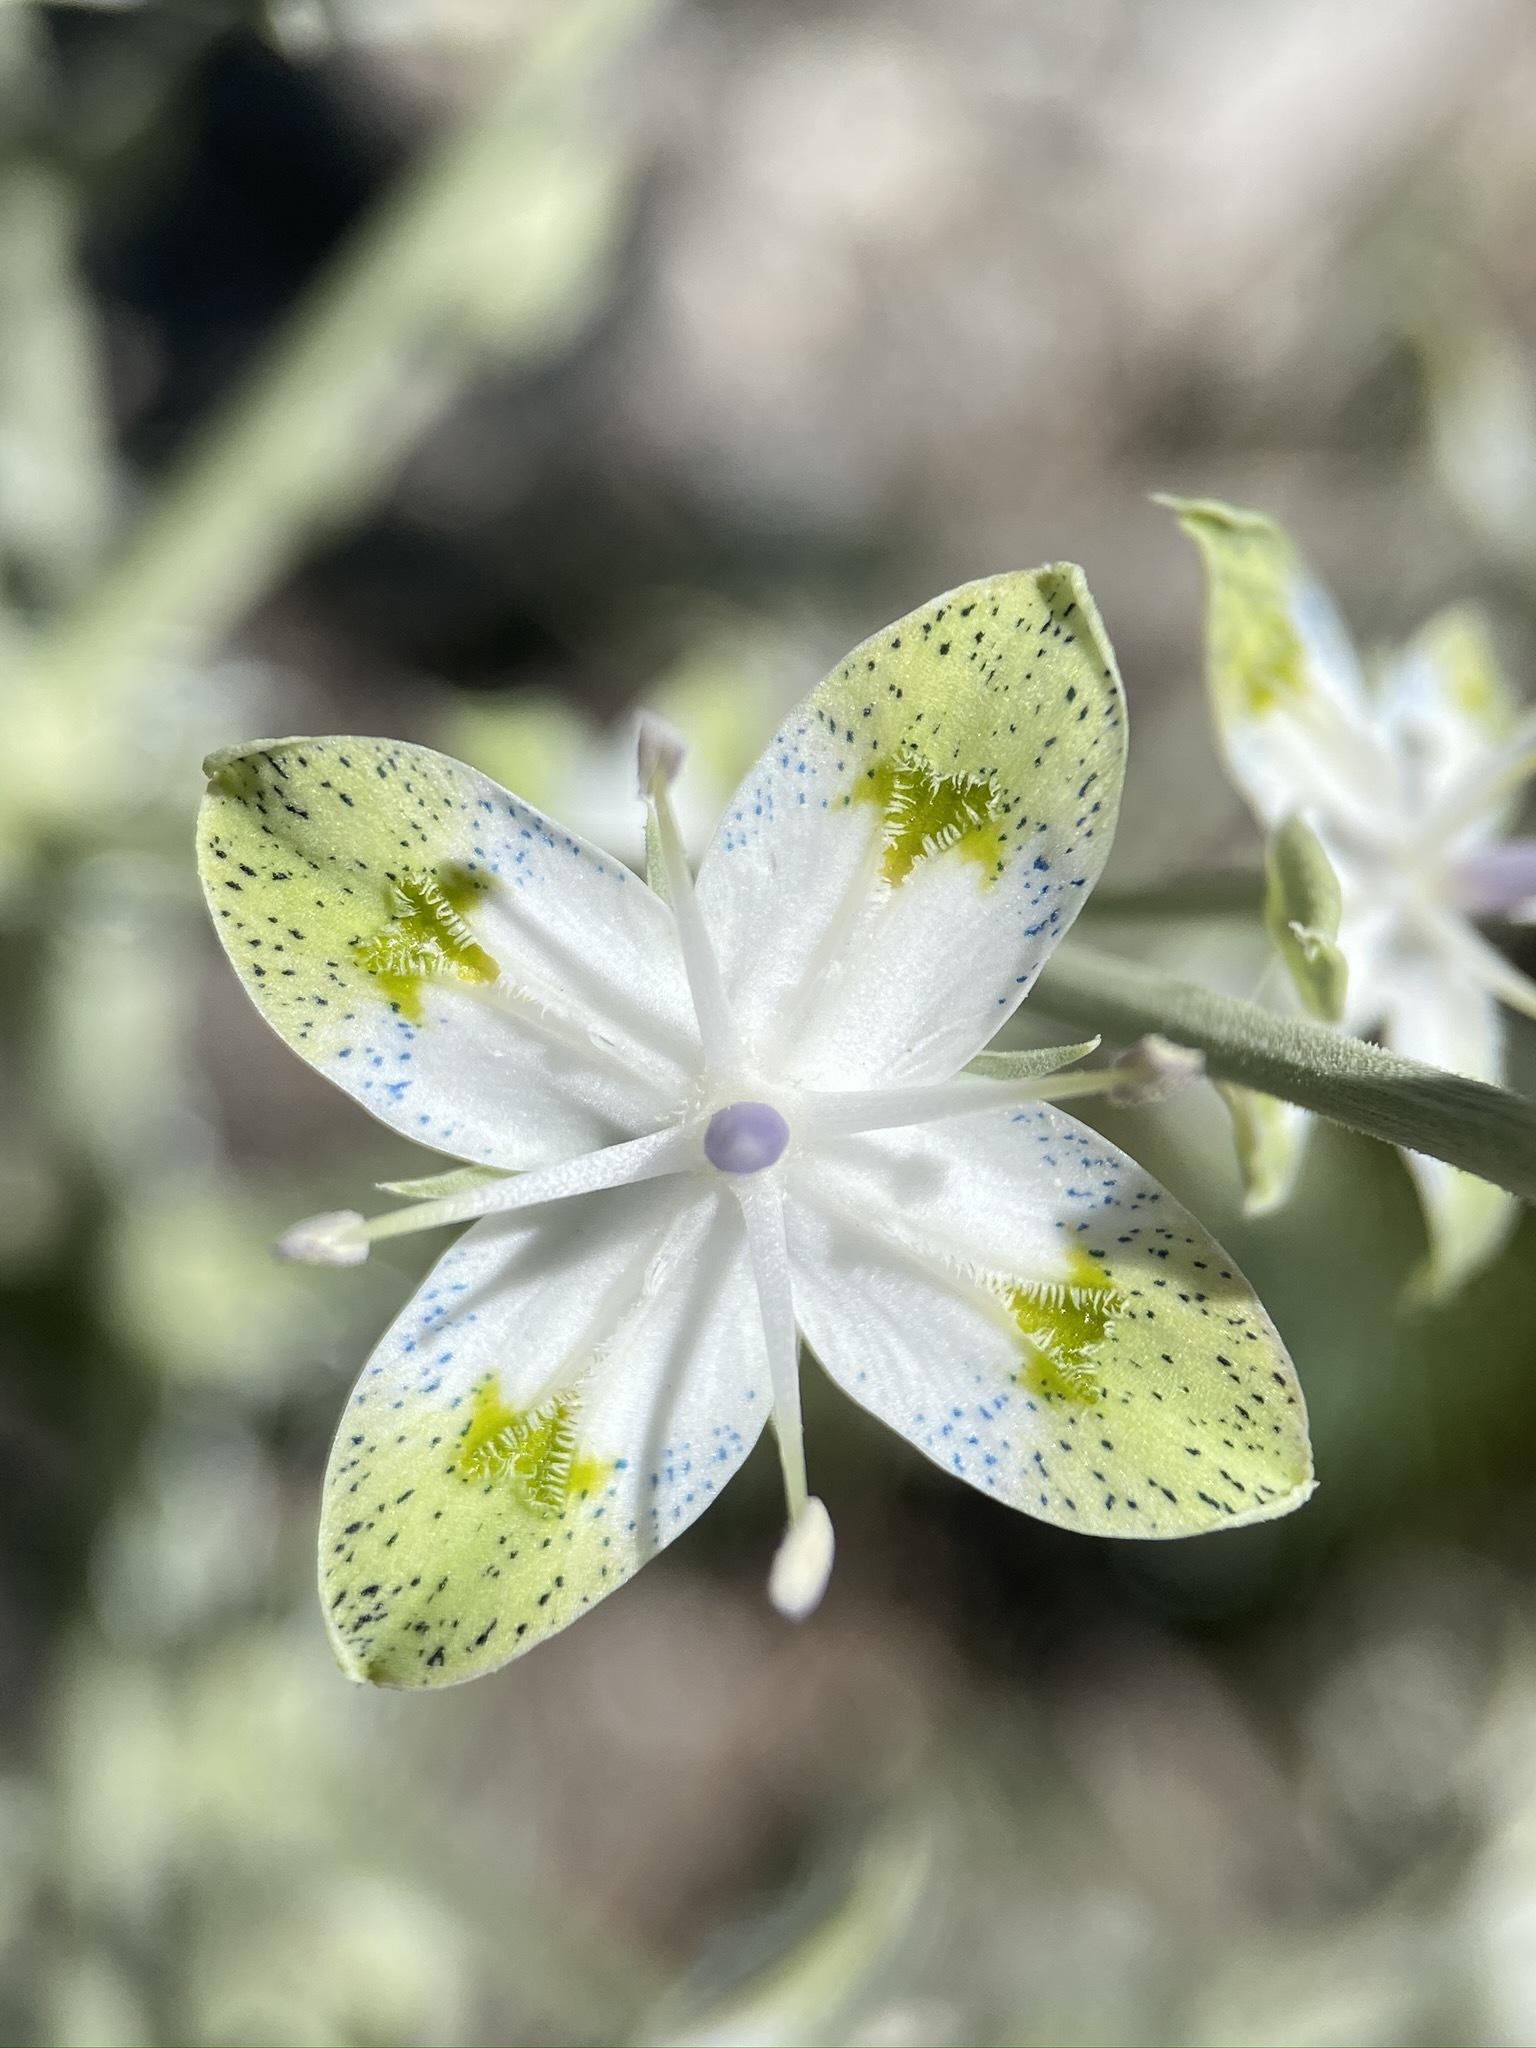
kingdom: Plantae
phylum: Tracheophyta
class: Magnoliopsida
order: Gentianales
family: Gentianaceae
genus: Frasera
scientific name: Frasera albomarginata
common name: Desert frasera
